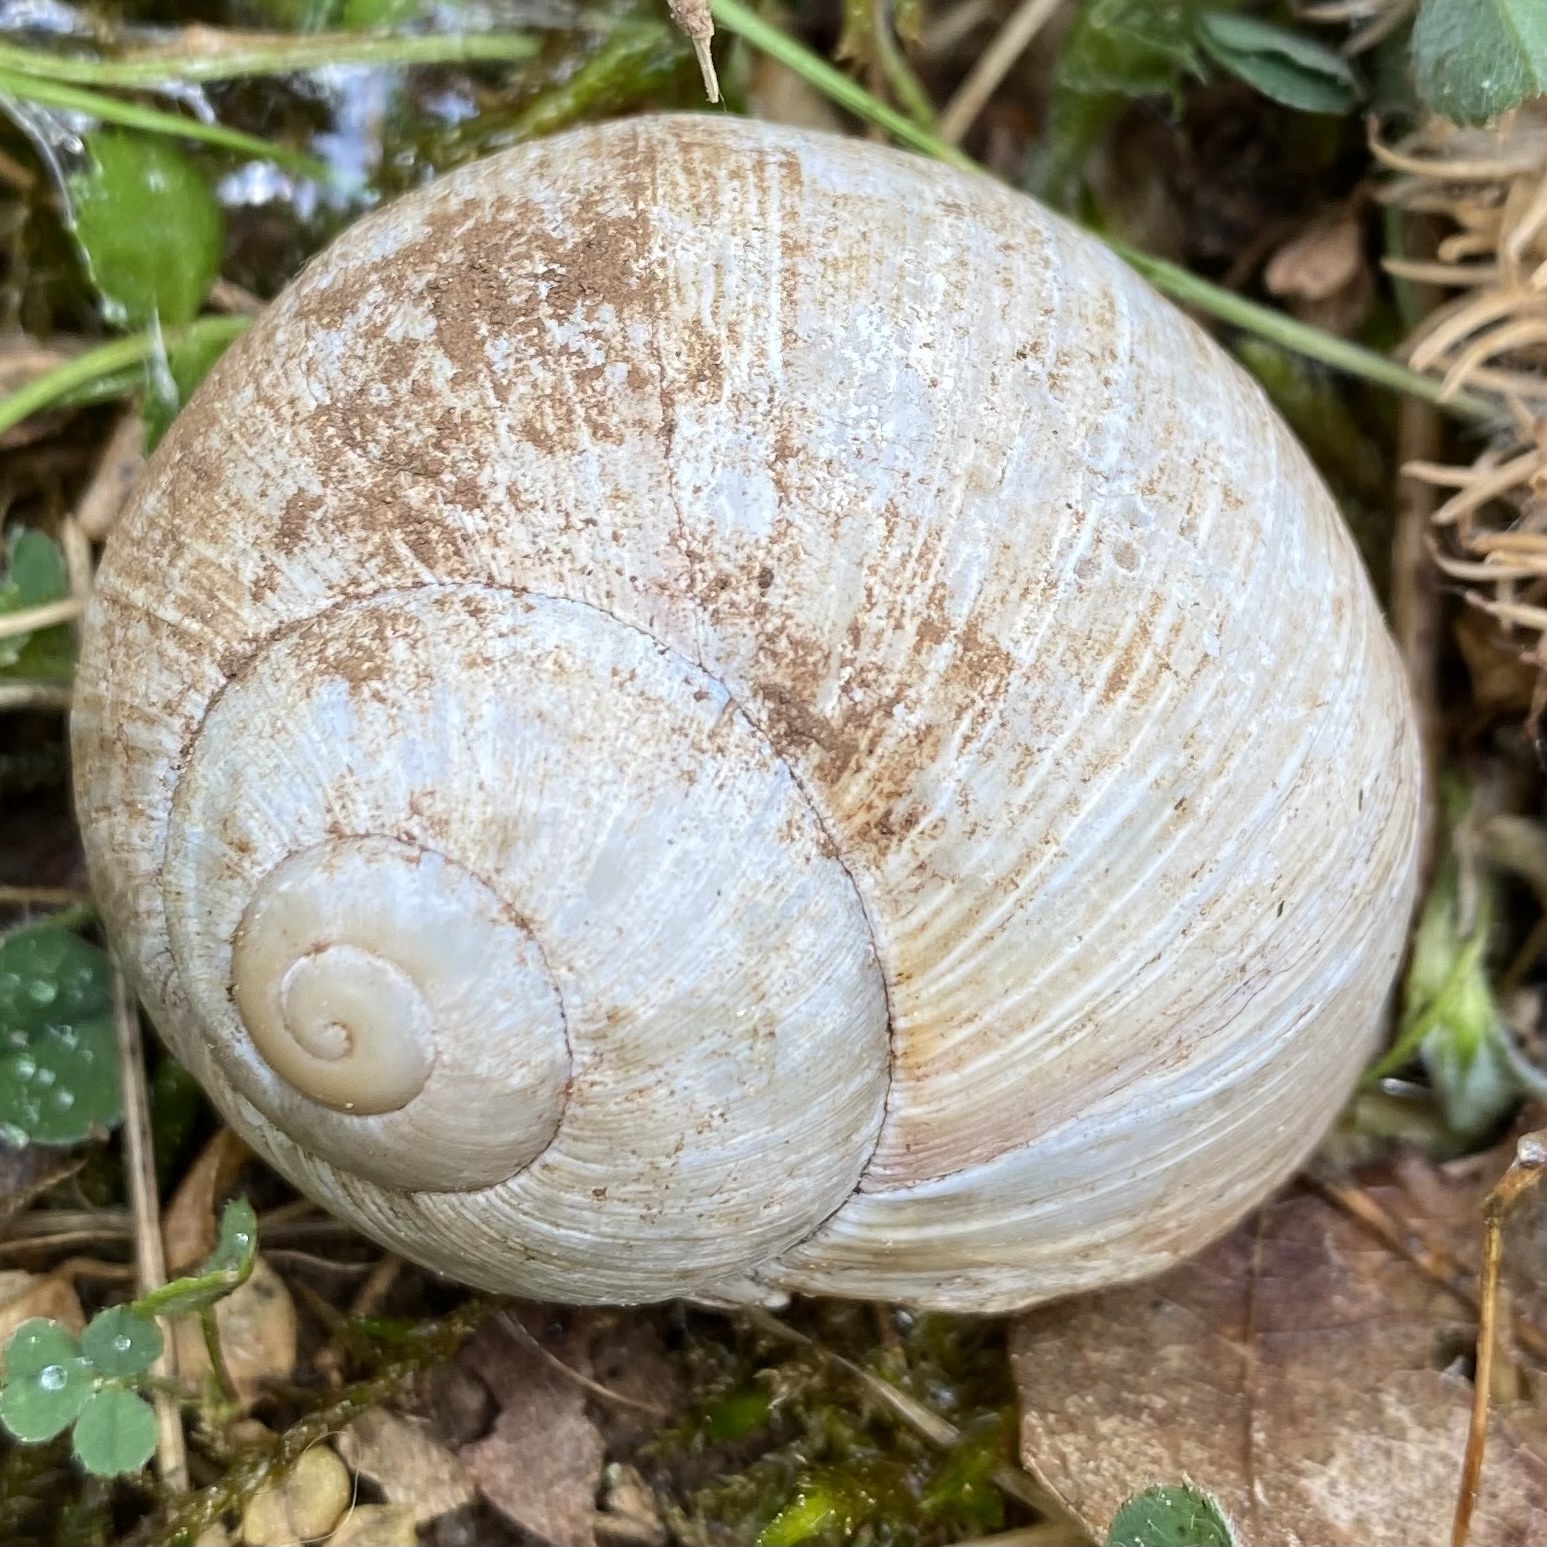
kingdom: Animalia
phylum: Mollusca
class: Gastropoda
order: Stylommatophora
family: Helicidae
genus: Helix
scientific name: Helix pomatia
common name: Roman snail
